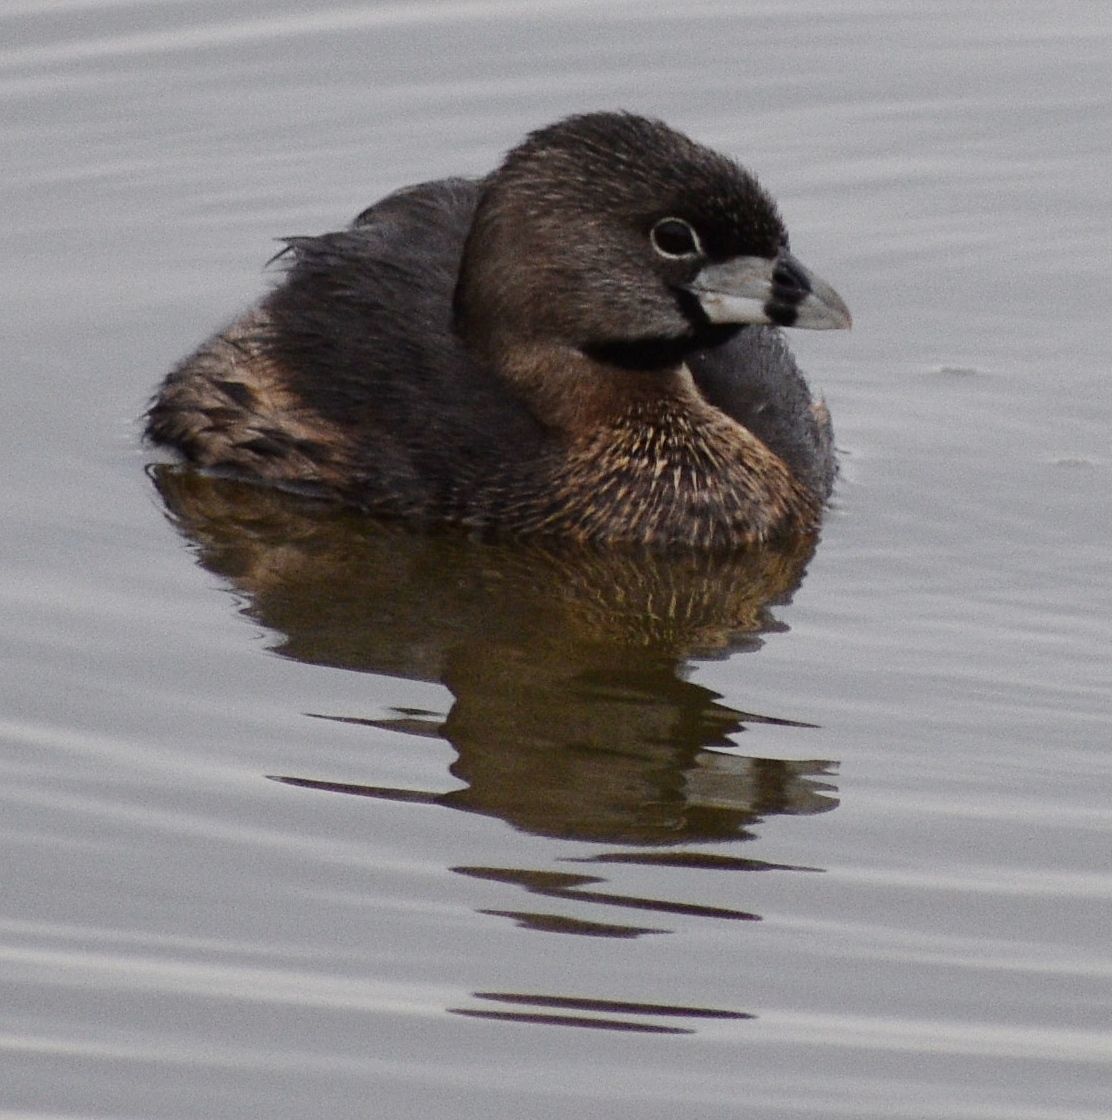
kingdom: Animalia
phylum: Chordata
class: Aves
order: Podicipediformes
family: Podicipedidae
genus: Podilymbus
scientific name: Podilymbus podiceps
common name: Pied-billed grebe
